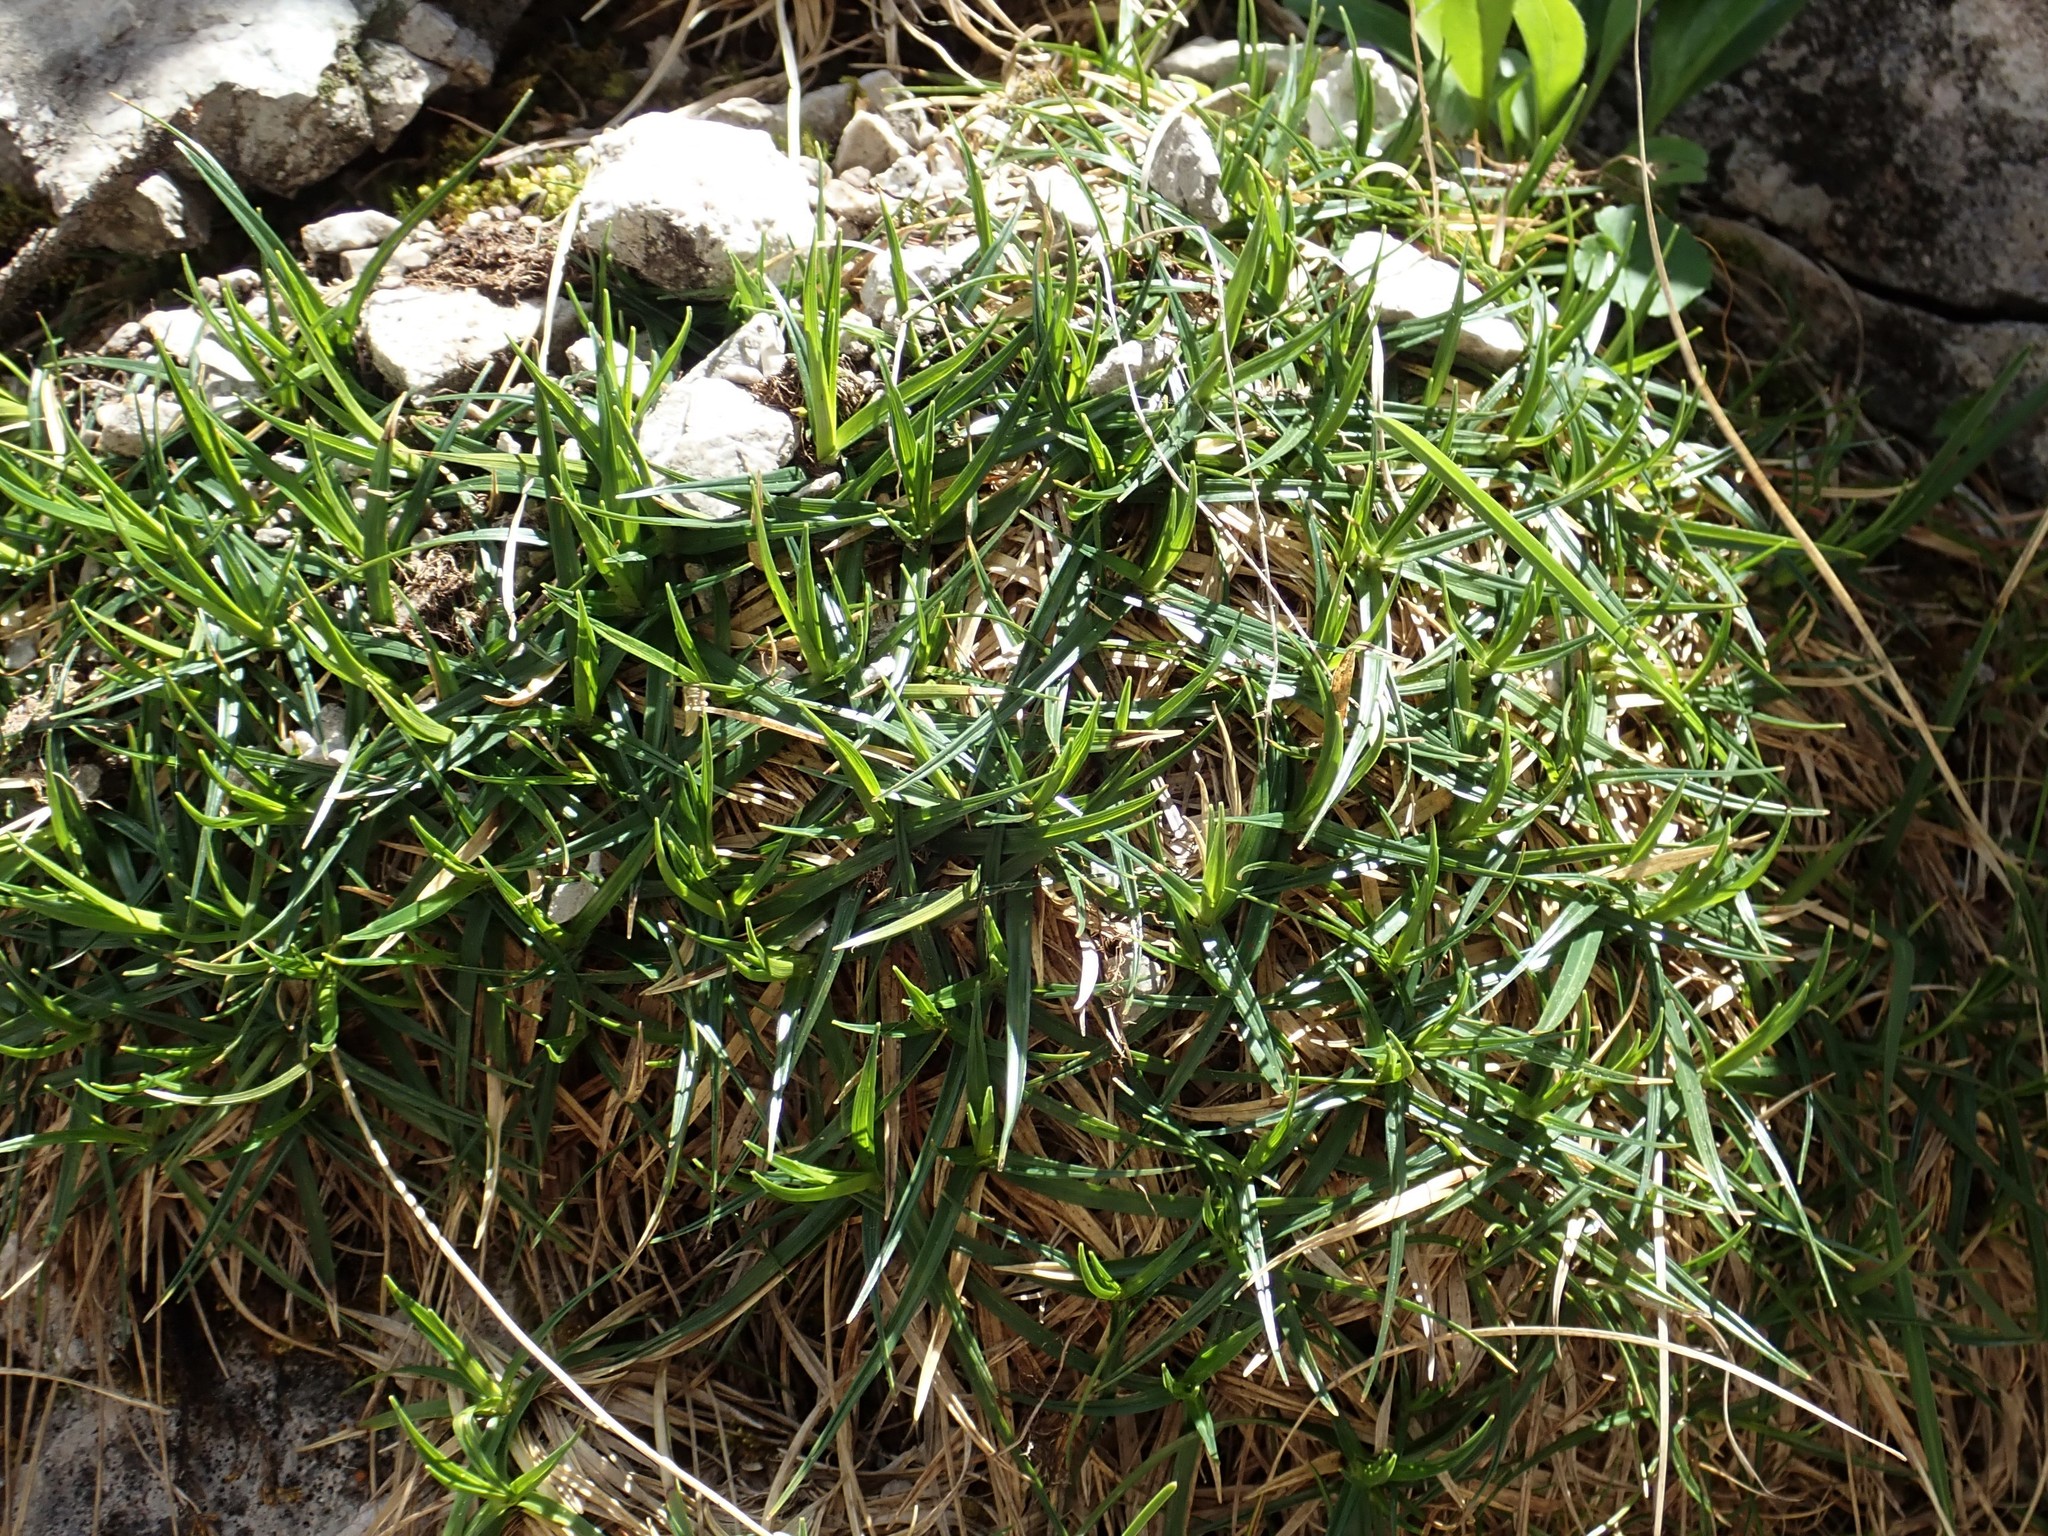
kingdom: Plantae
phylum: Tracheophyta
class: Liliopsida
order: Poales
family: Cyperaceae
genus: Carex
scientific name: Carex firma
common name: Dwarf pillow sedge
